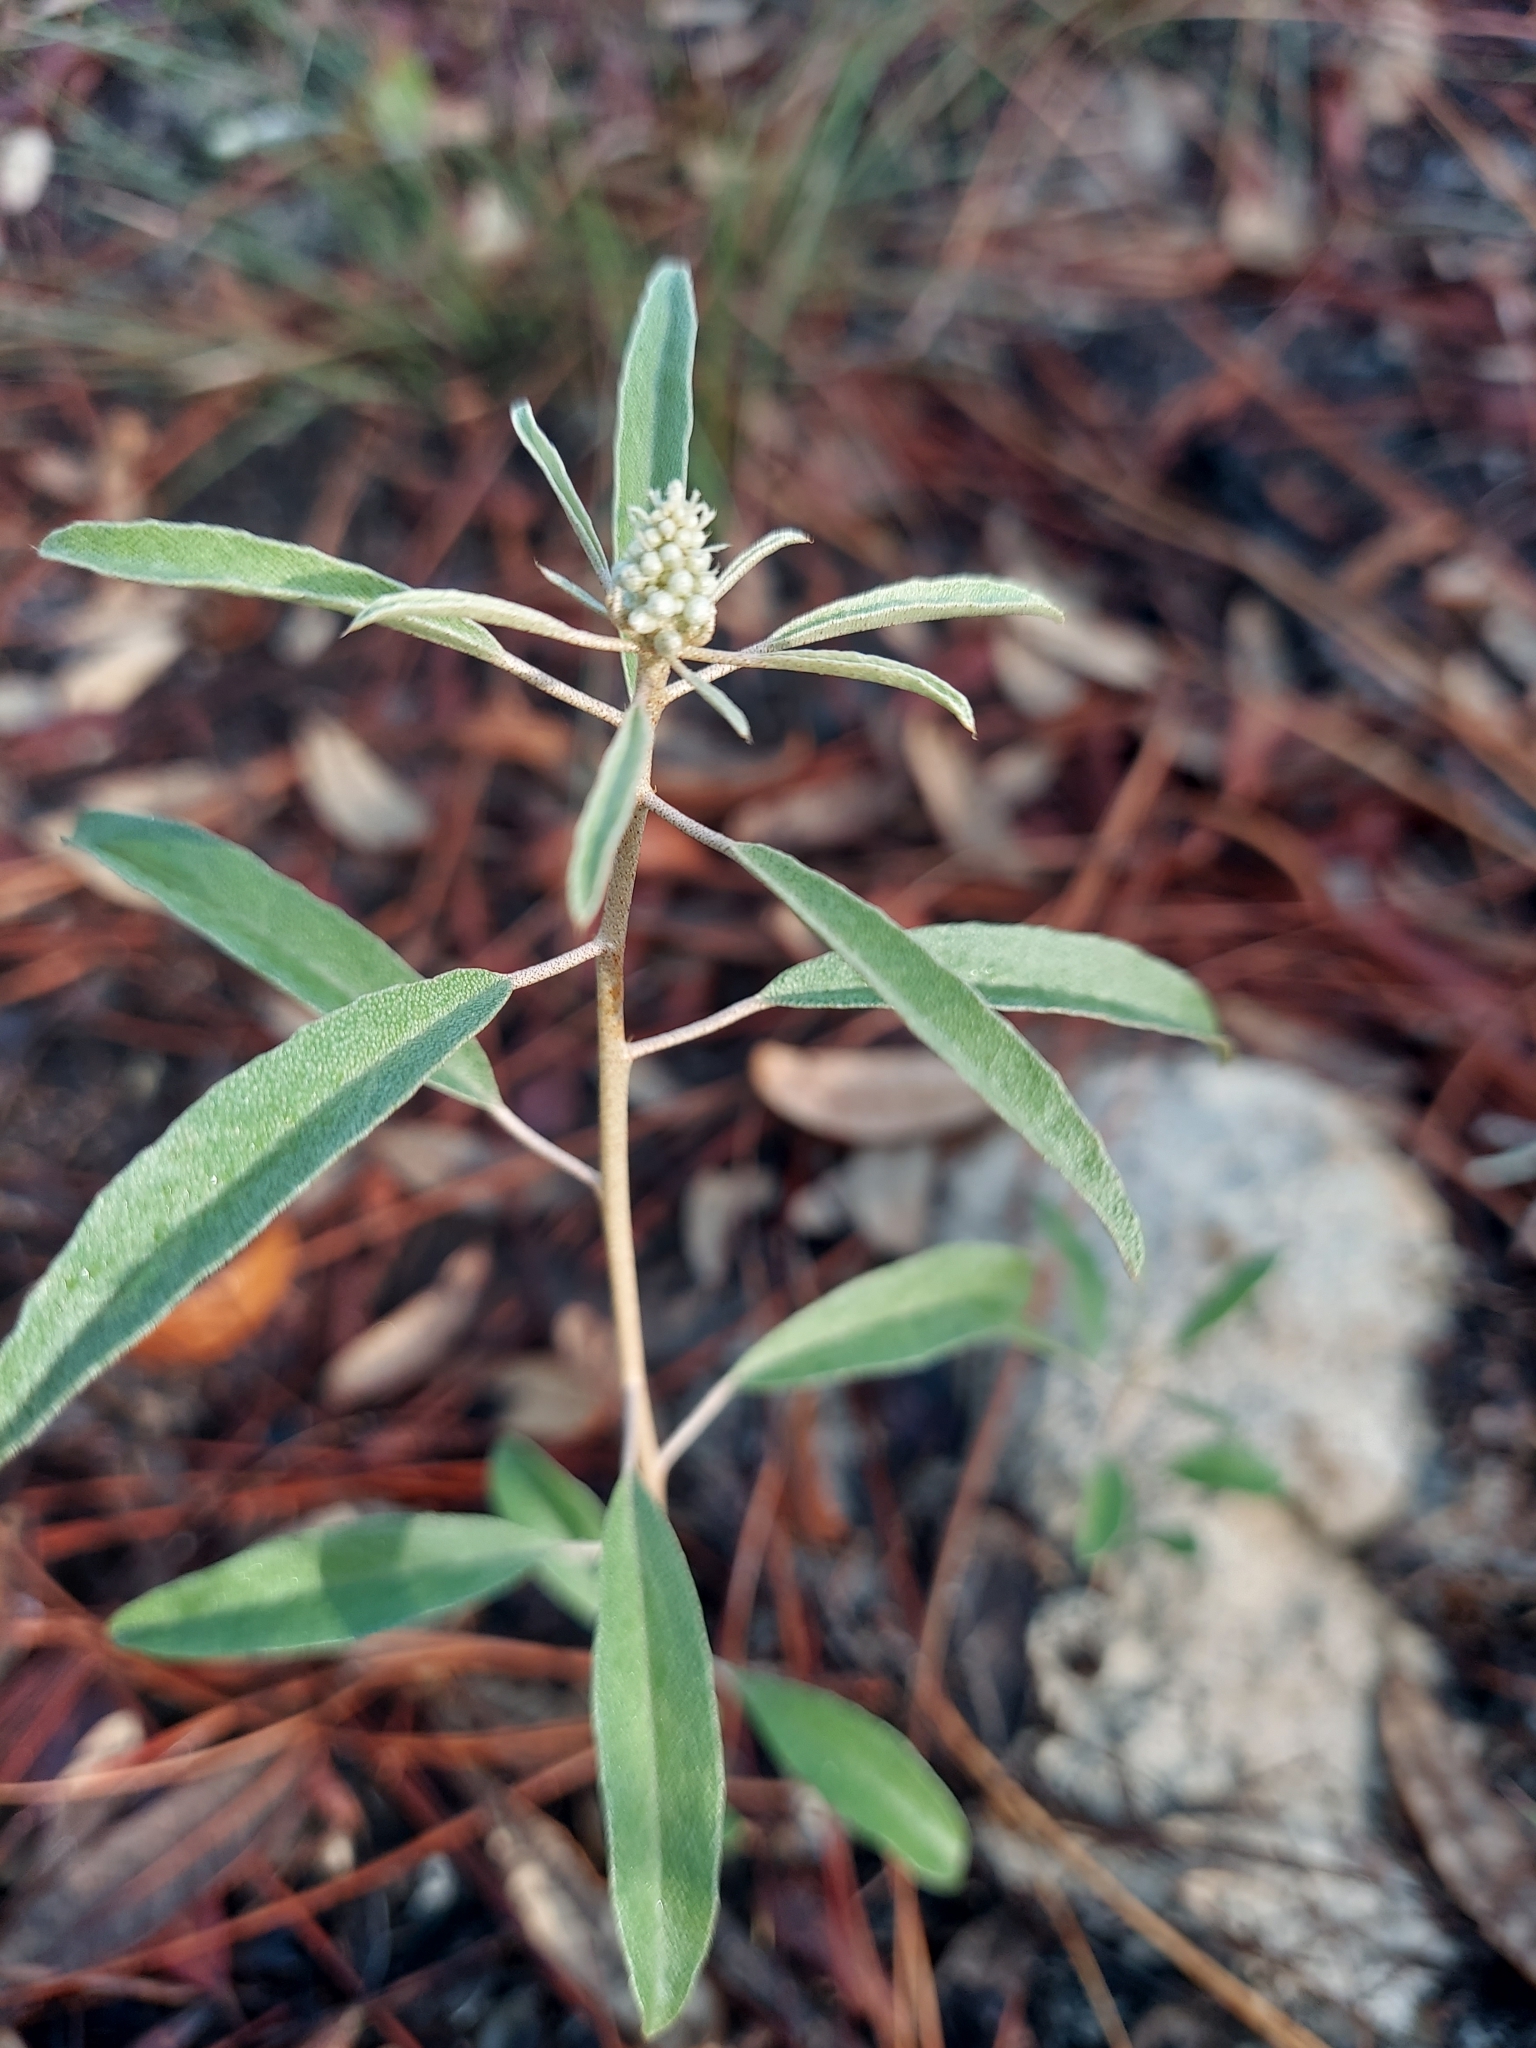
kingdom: Plantae
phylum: Tracheophyta
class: Magnoliopsida
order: Malpighiales
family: Euphorbiaceae
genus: Croton
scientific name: Croton argyranthemus
